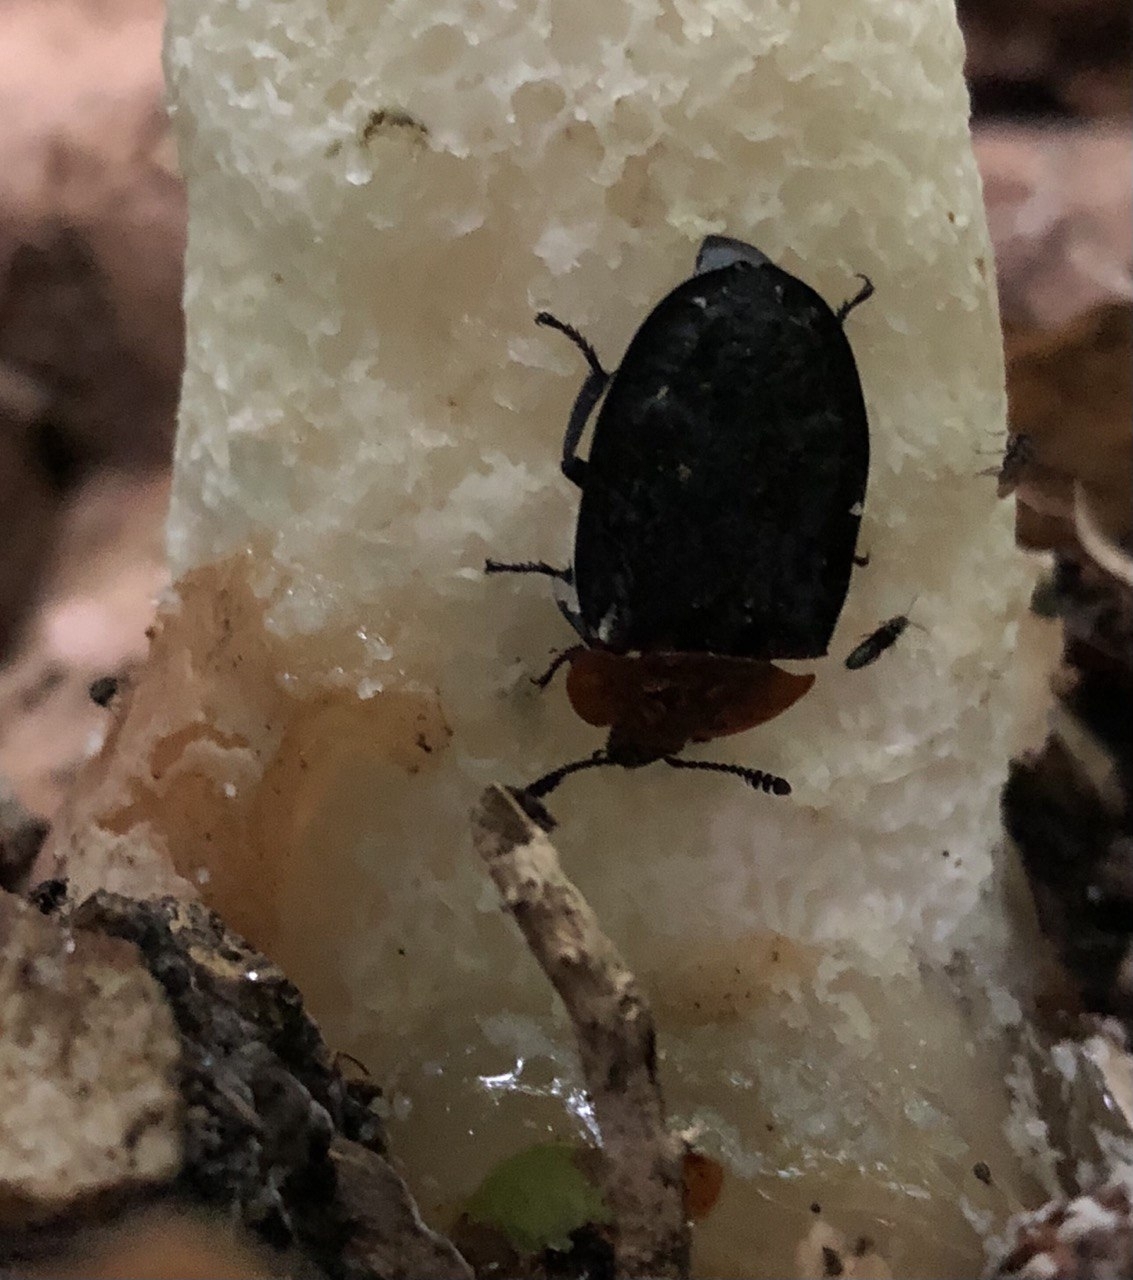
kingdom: Animalia
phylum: Arthropoda
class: Insecta
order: Coleoptera
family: Staphylinidae
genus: Oiceoptoma
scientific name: Oiceoptoma thoracicum
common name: Red-breasted carrion beetle
